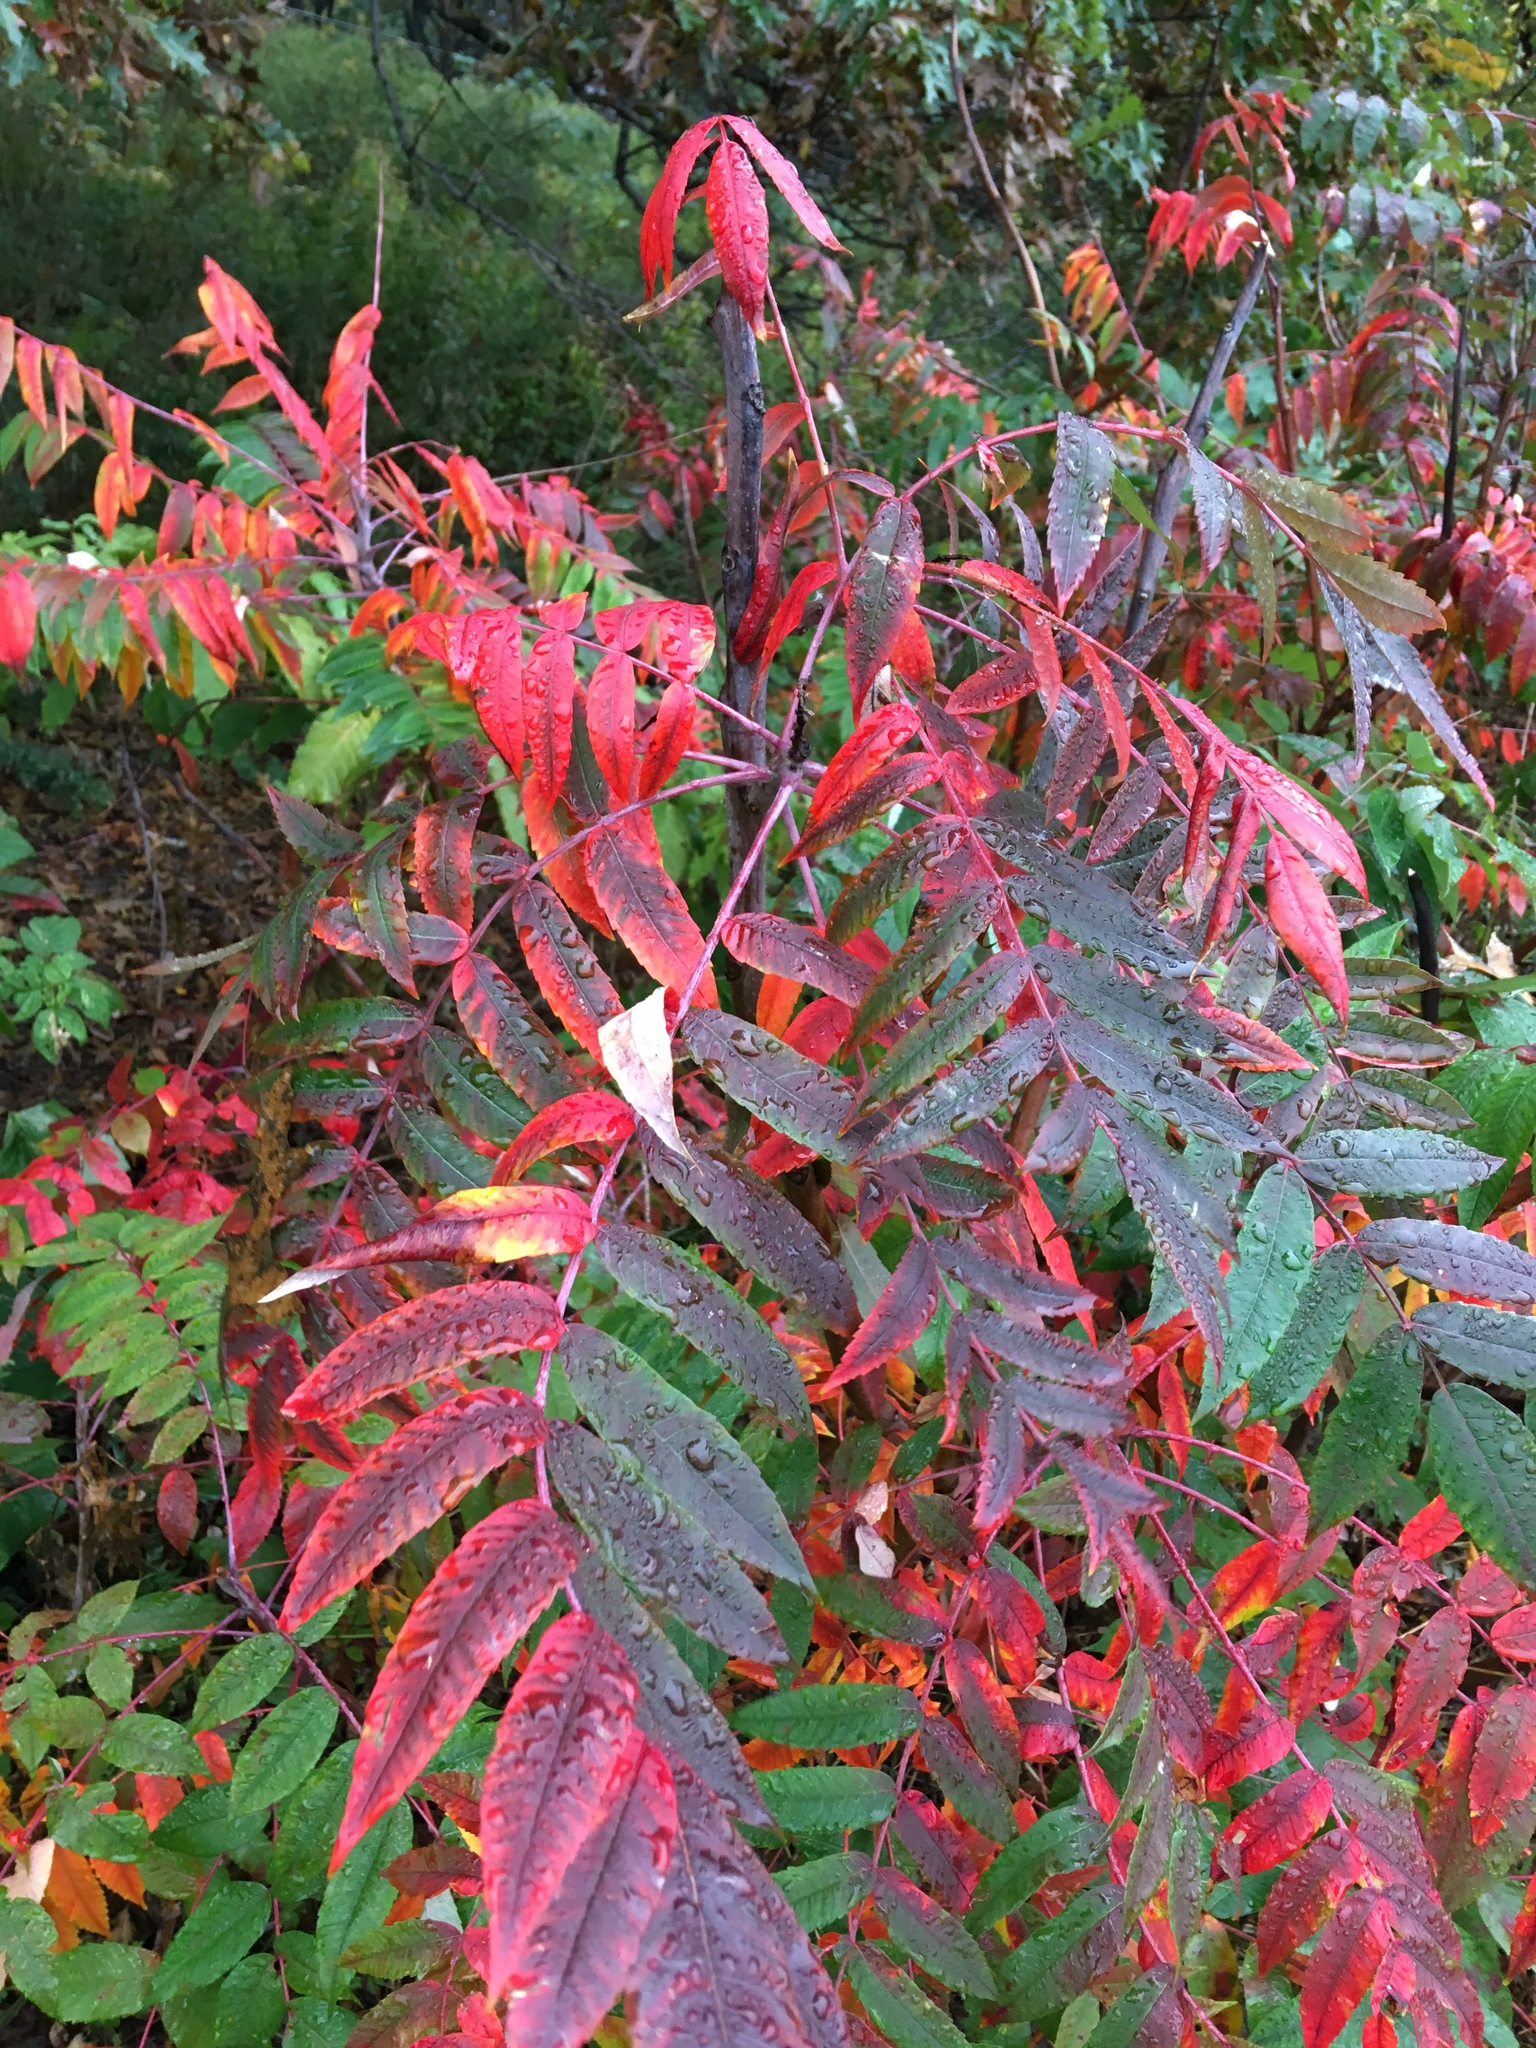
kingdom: Plantae
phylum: Tracheophyta
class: Magnoliopsida
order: Sapindales
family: Anacardiaceae
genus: Rhus
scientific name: Rhus glabra
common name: Scarlet sumac
